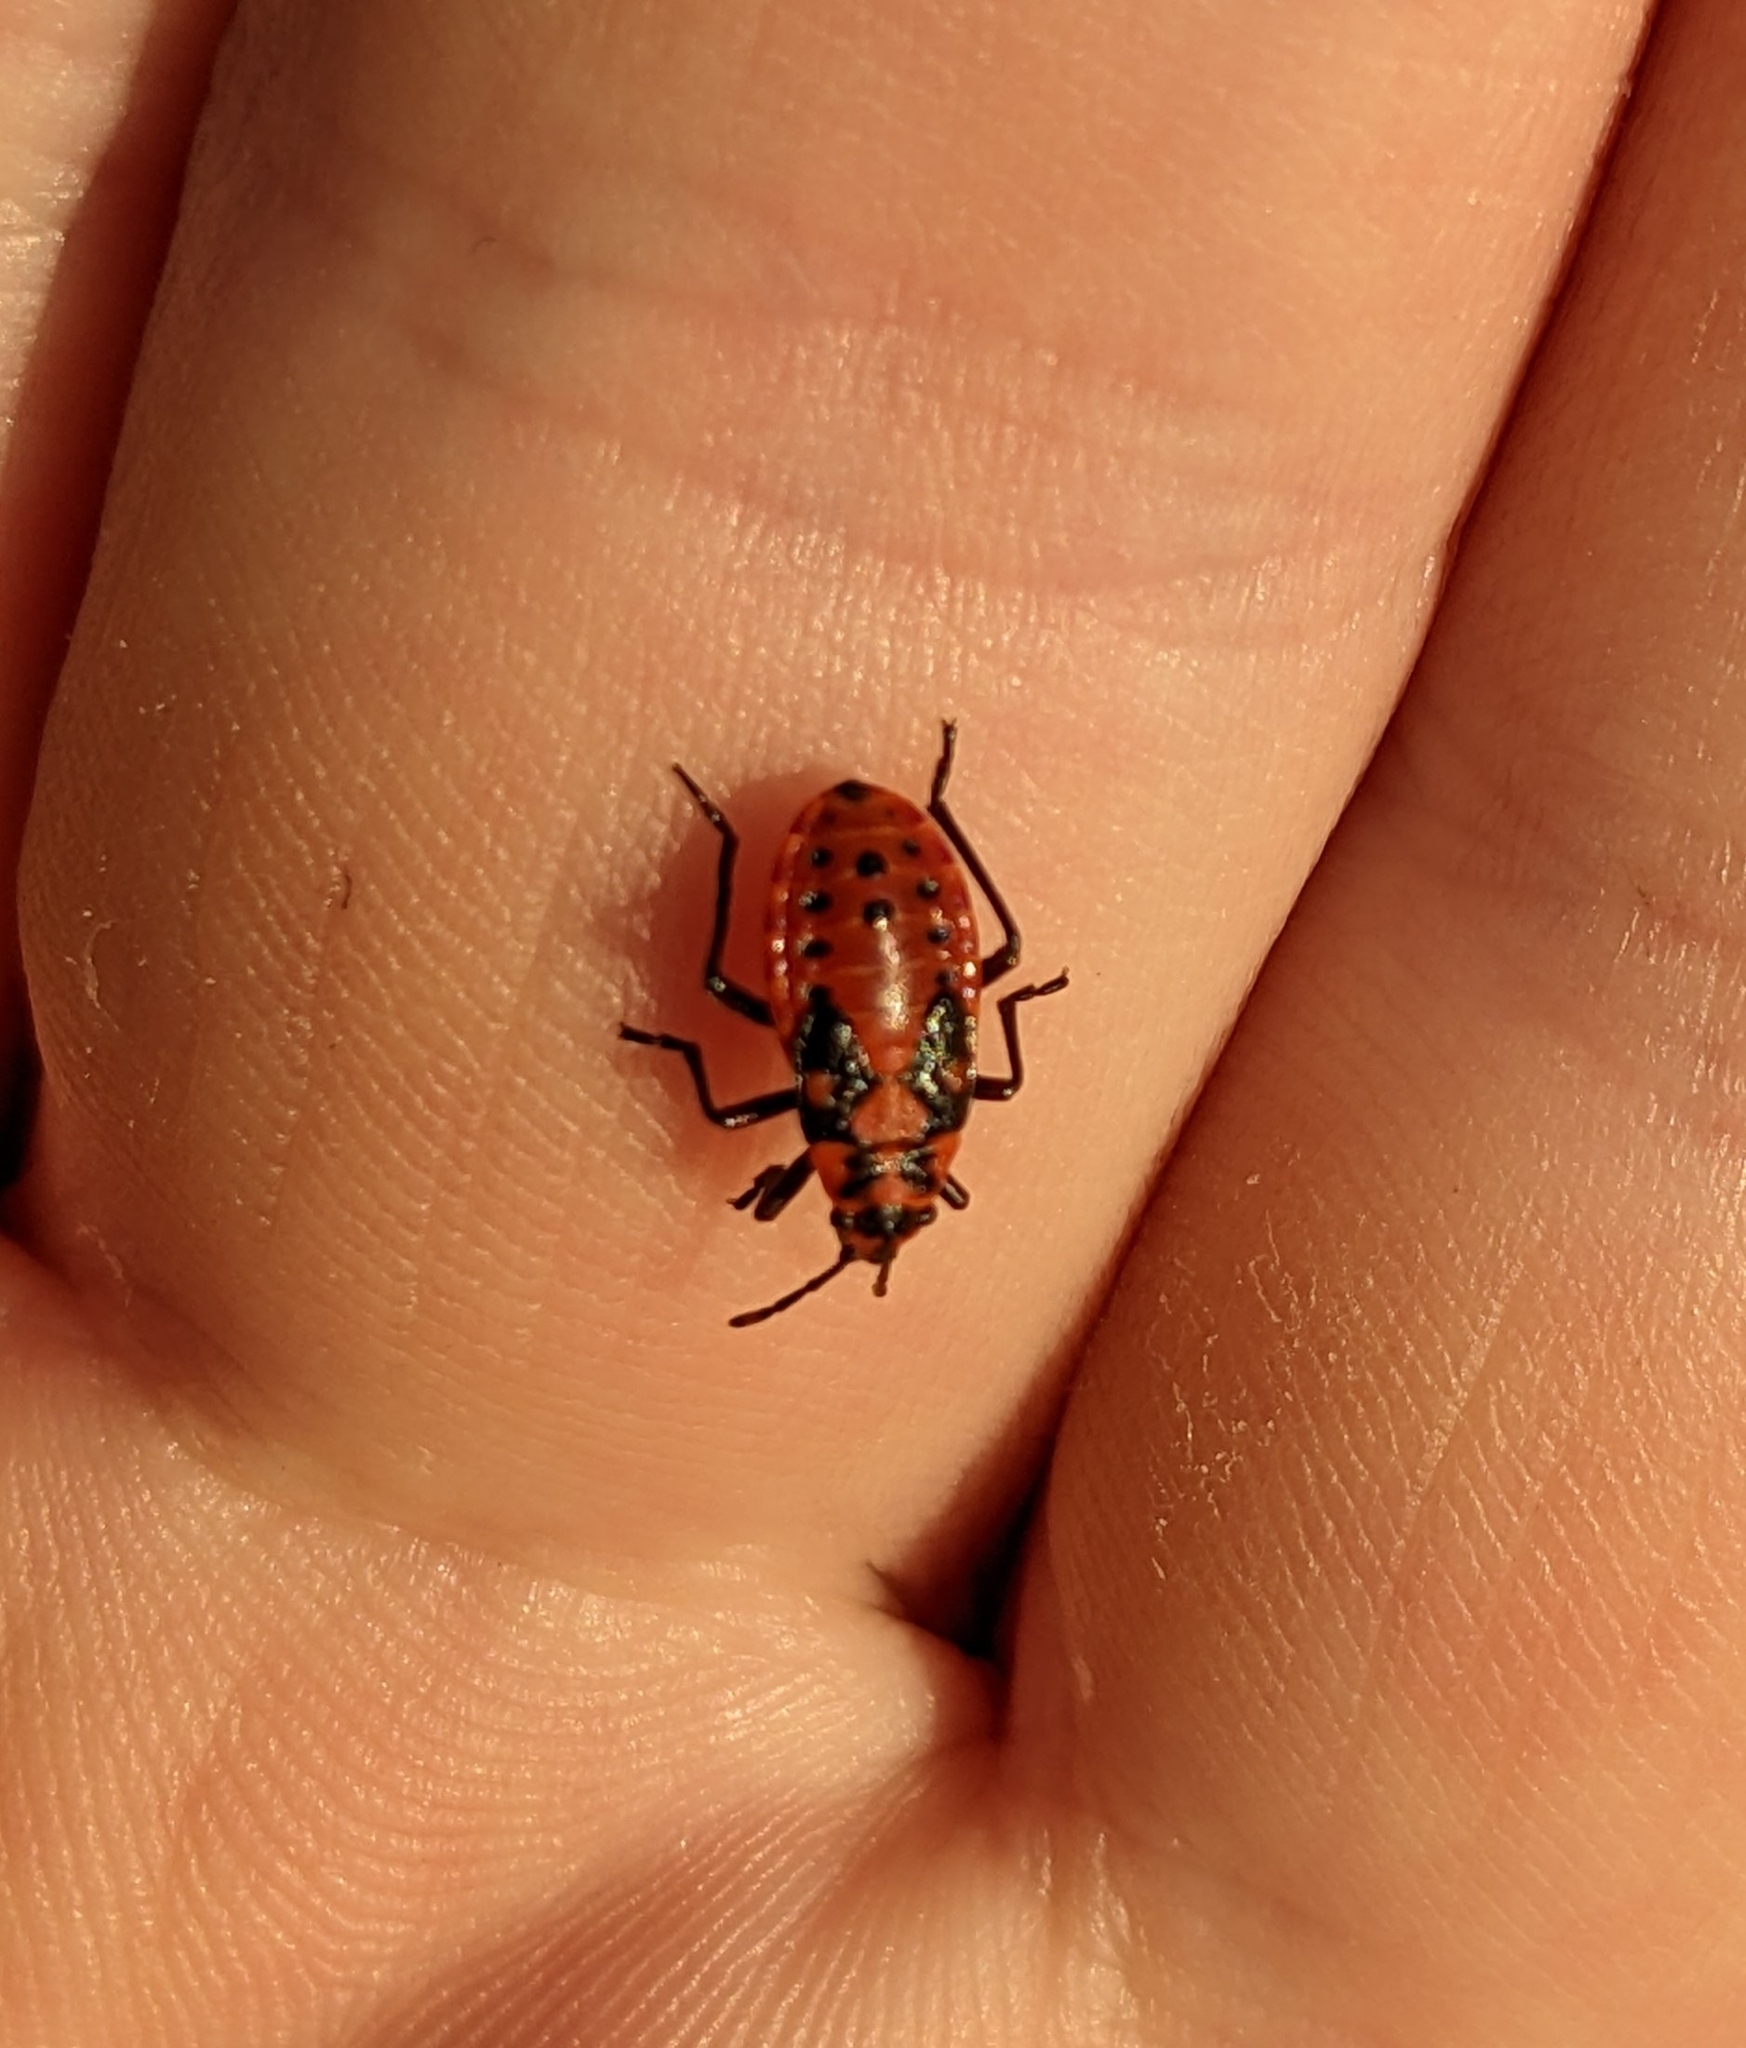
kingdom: Animalia
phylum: Arthropoda
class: Insecta
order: Hemiptera
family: Lygaeidae
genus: Spilostethus
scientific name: Spilostethus saxatilis
